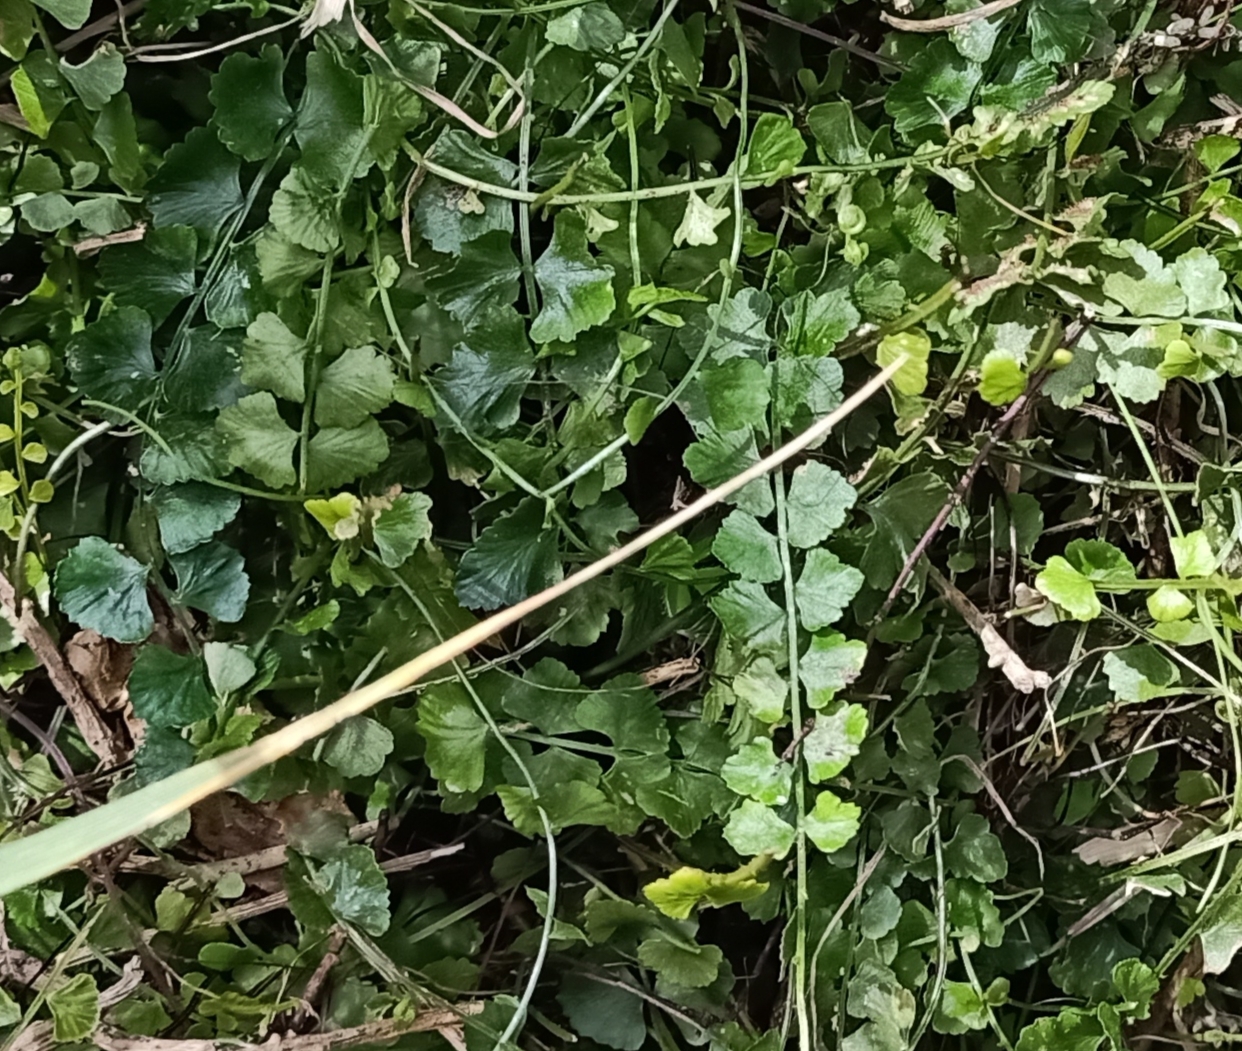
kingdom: Plantae
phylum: Tracheophyta
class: Polypodiopsida
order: Polypodiales
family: Aspleniaceae
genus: Asplenium
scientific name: Asplenium flabellifolium
